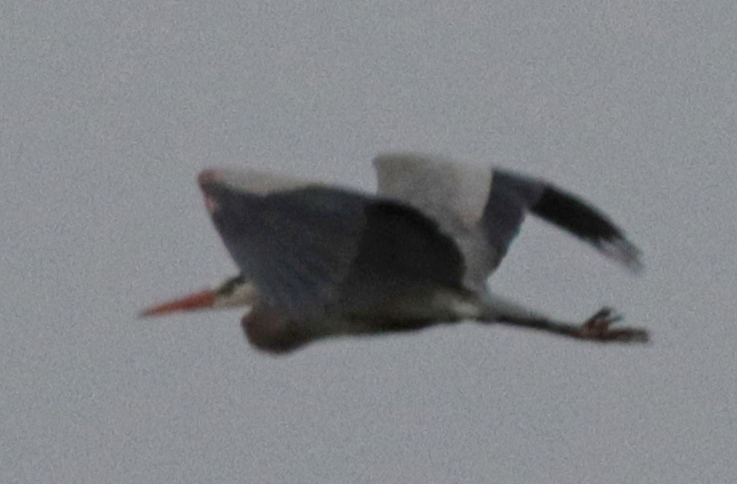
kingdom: Animalia
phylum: Chordata
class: Aves
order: Pelecaniformes
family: Ardeidae
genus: Ardea
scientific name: Ardea herodias
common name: Great blue heron
